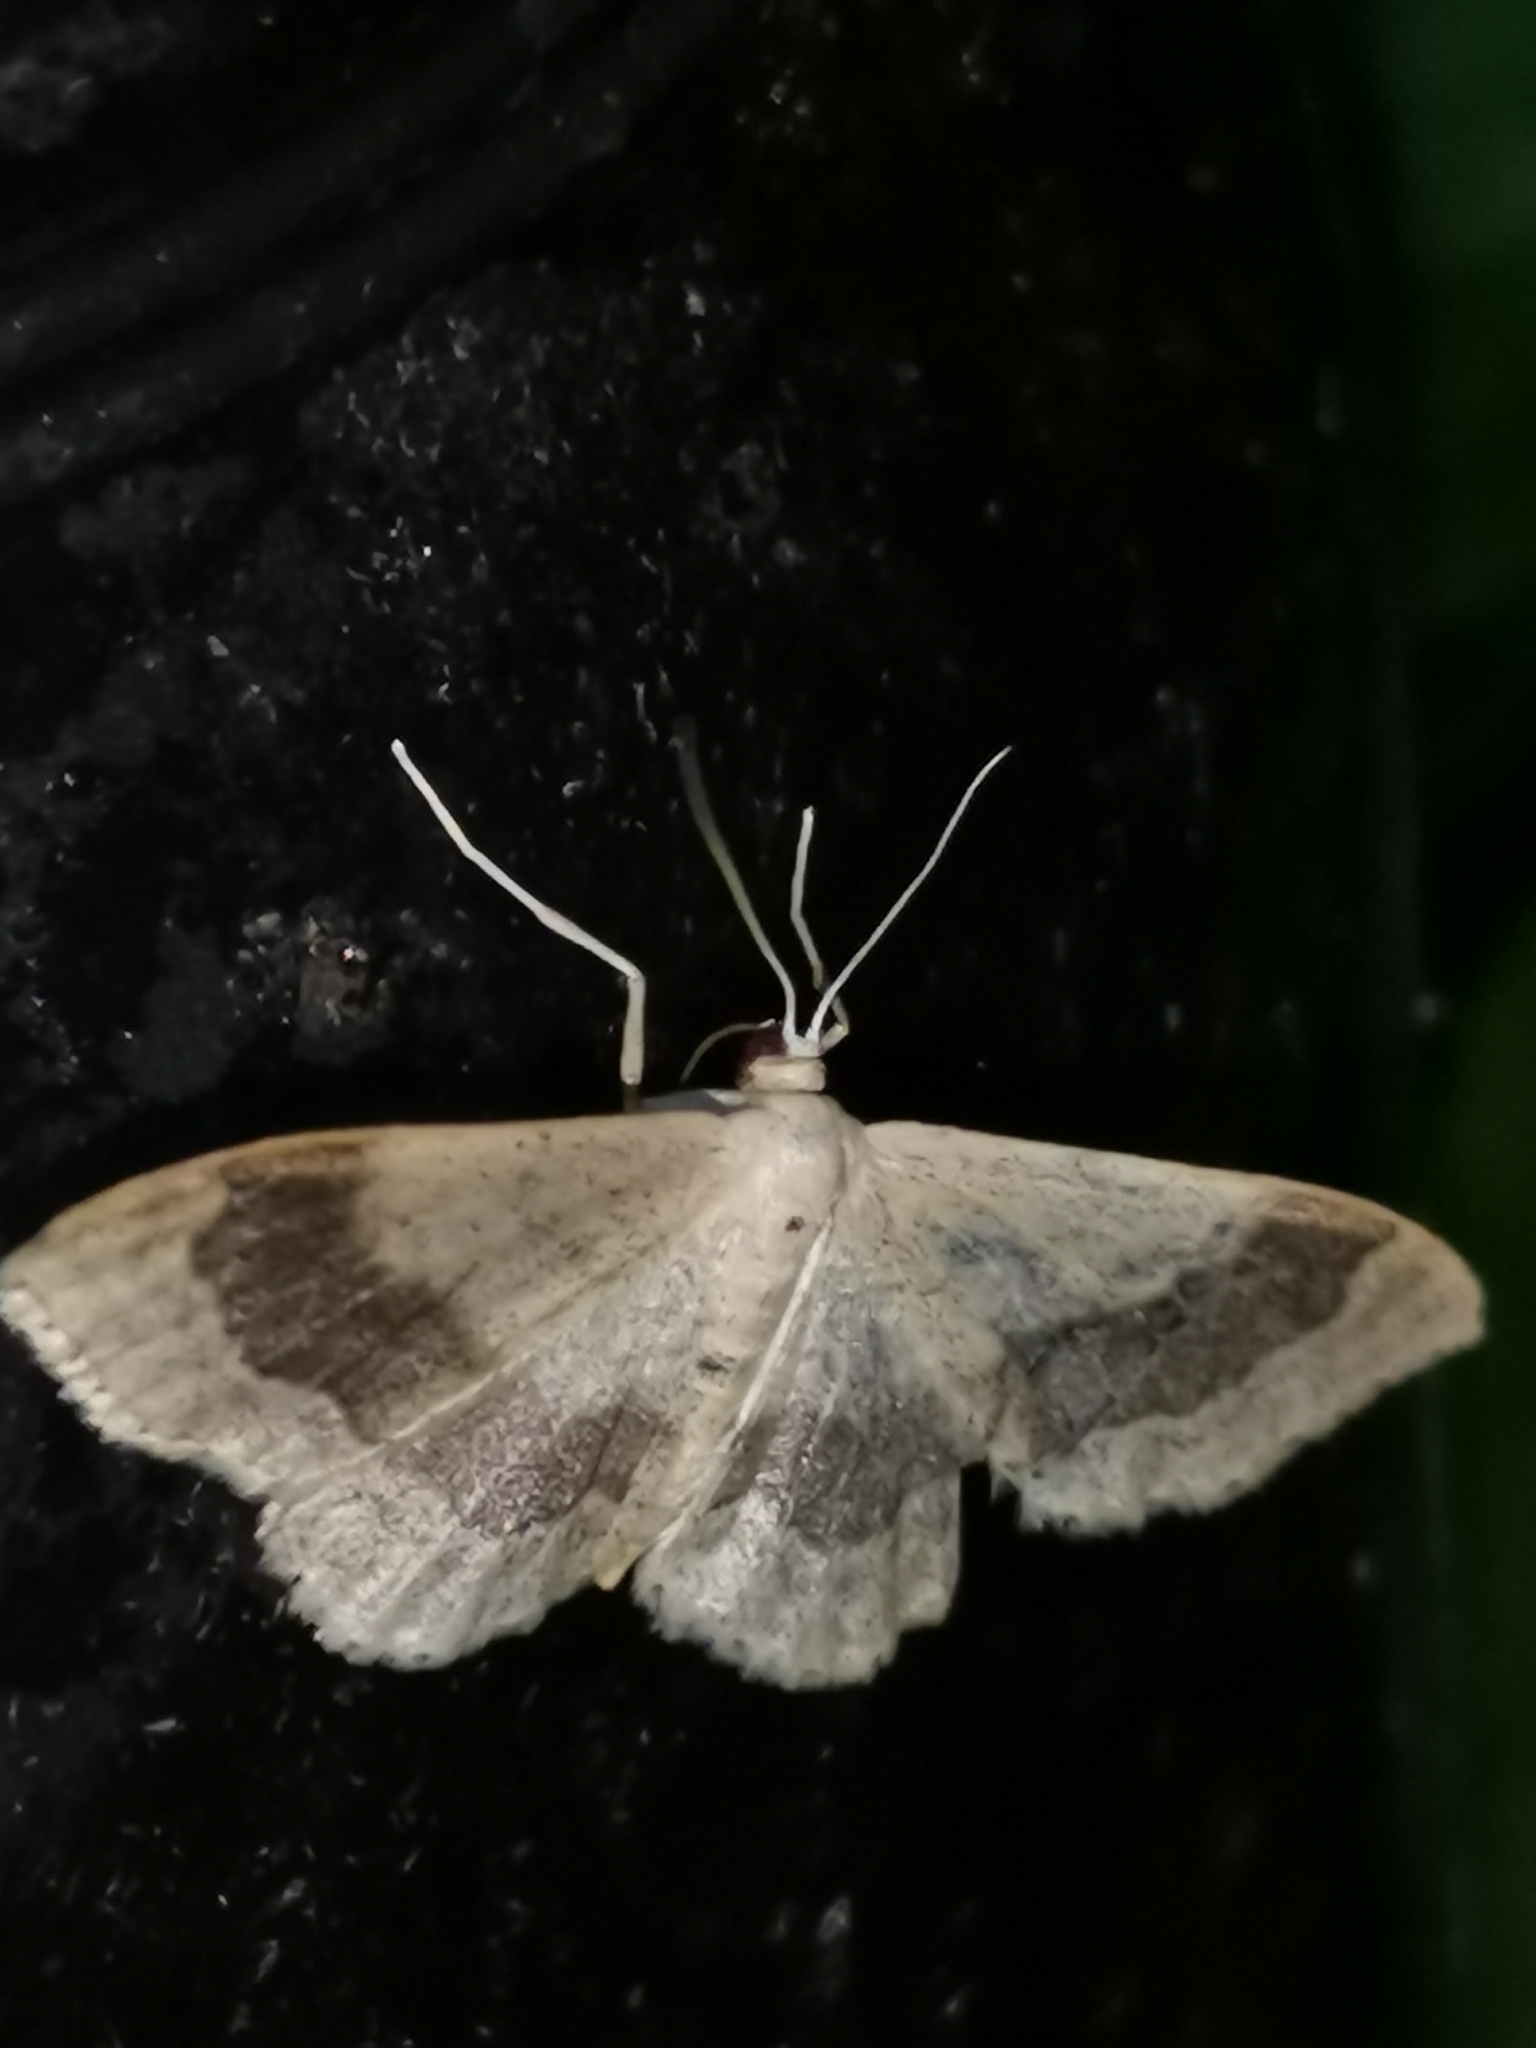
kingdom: Animalia
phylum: Arthropoda
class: Insecta
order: Lepidoptera
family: Geometridae
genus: Idaea
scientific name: Idaea aversata
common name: Riband wave
